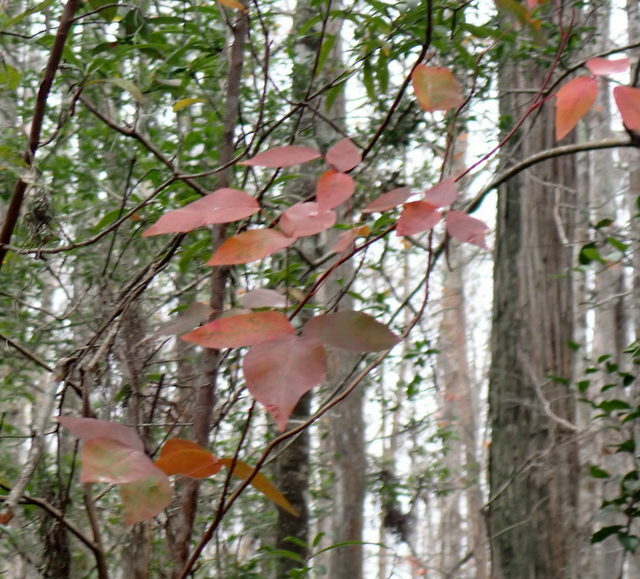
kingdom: Plantae
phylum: Tracheophyta
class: Magnoliopsida
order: Sapindales
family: Anacardiaceae
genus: Toxicodendron
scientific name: Toxicodendron radicans
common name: Poison ivy
